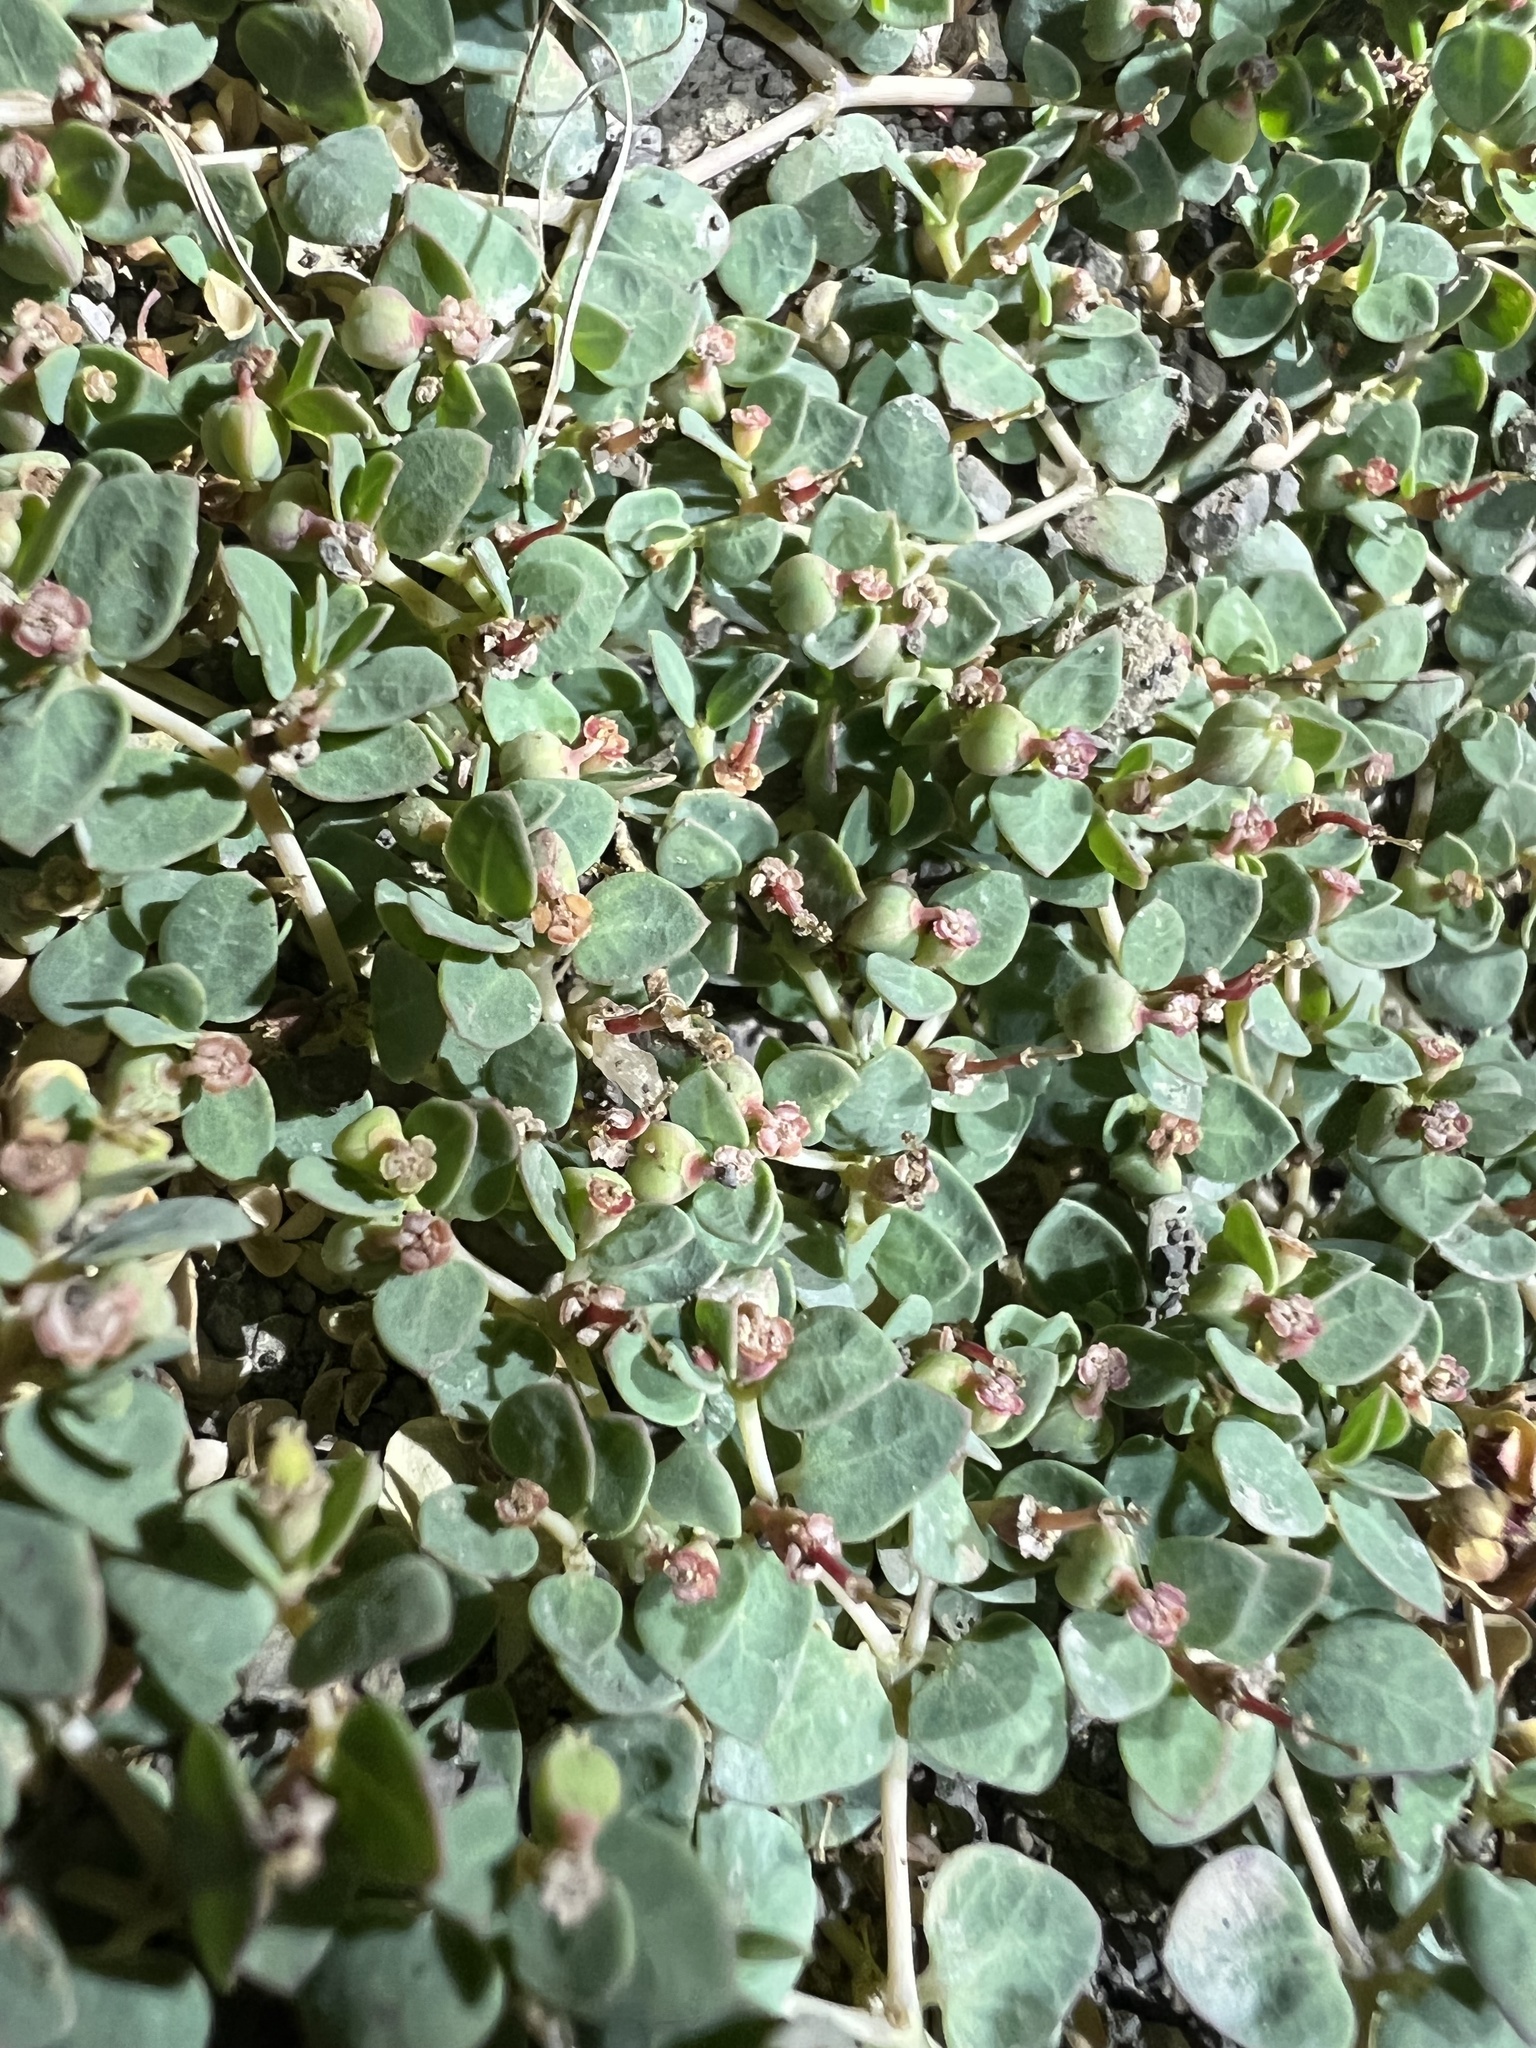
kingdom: Plantae
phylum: Tracheophyta
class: Magnoliopsida
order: Malpighiales
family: Euphorbiaceae
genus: Euphorbia
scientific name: Euphorbia fendleri
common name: Fendler's euphorbia
